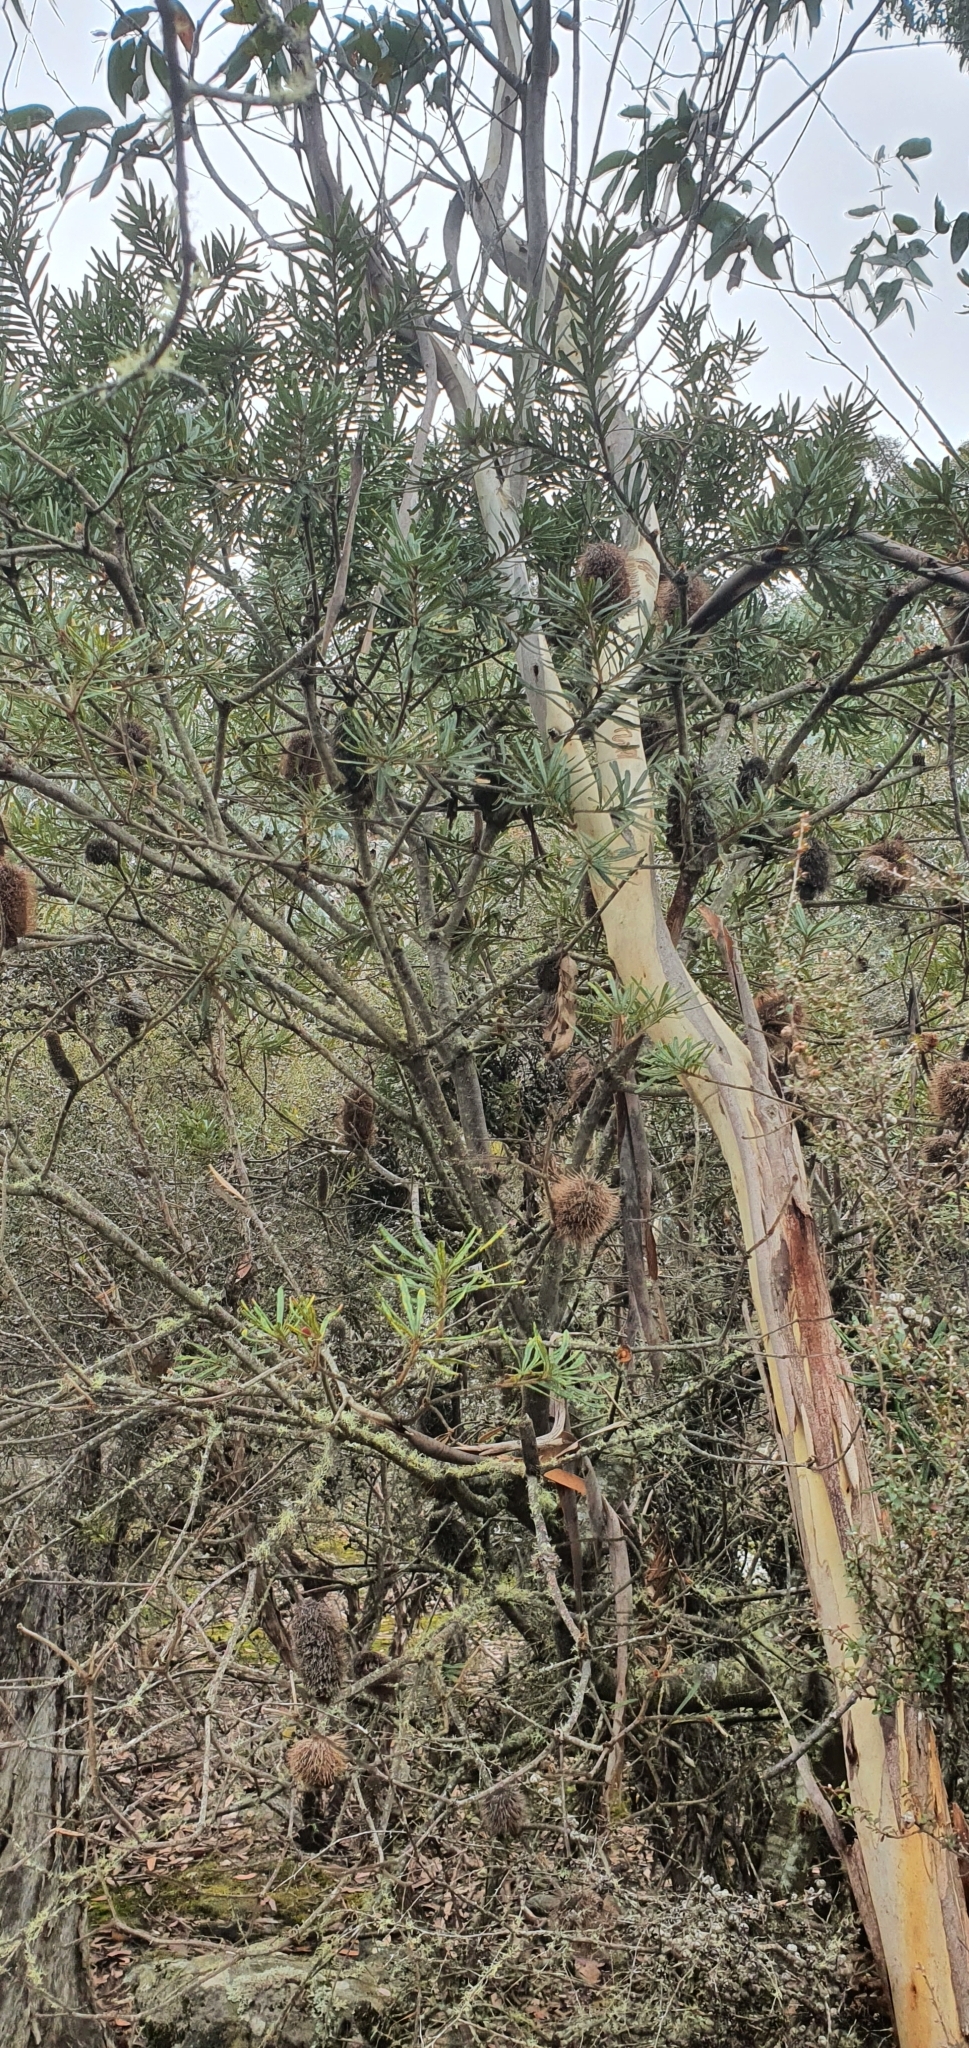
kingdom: Plantae
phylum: Tracheophyta
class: Magnoliopsida
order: Proteales
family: Proteaceae
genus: Banksia
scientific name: Banksia marginata
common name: Silver banksia
